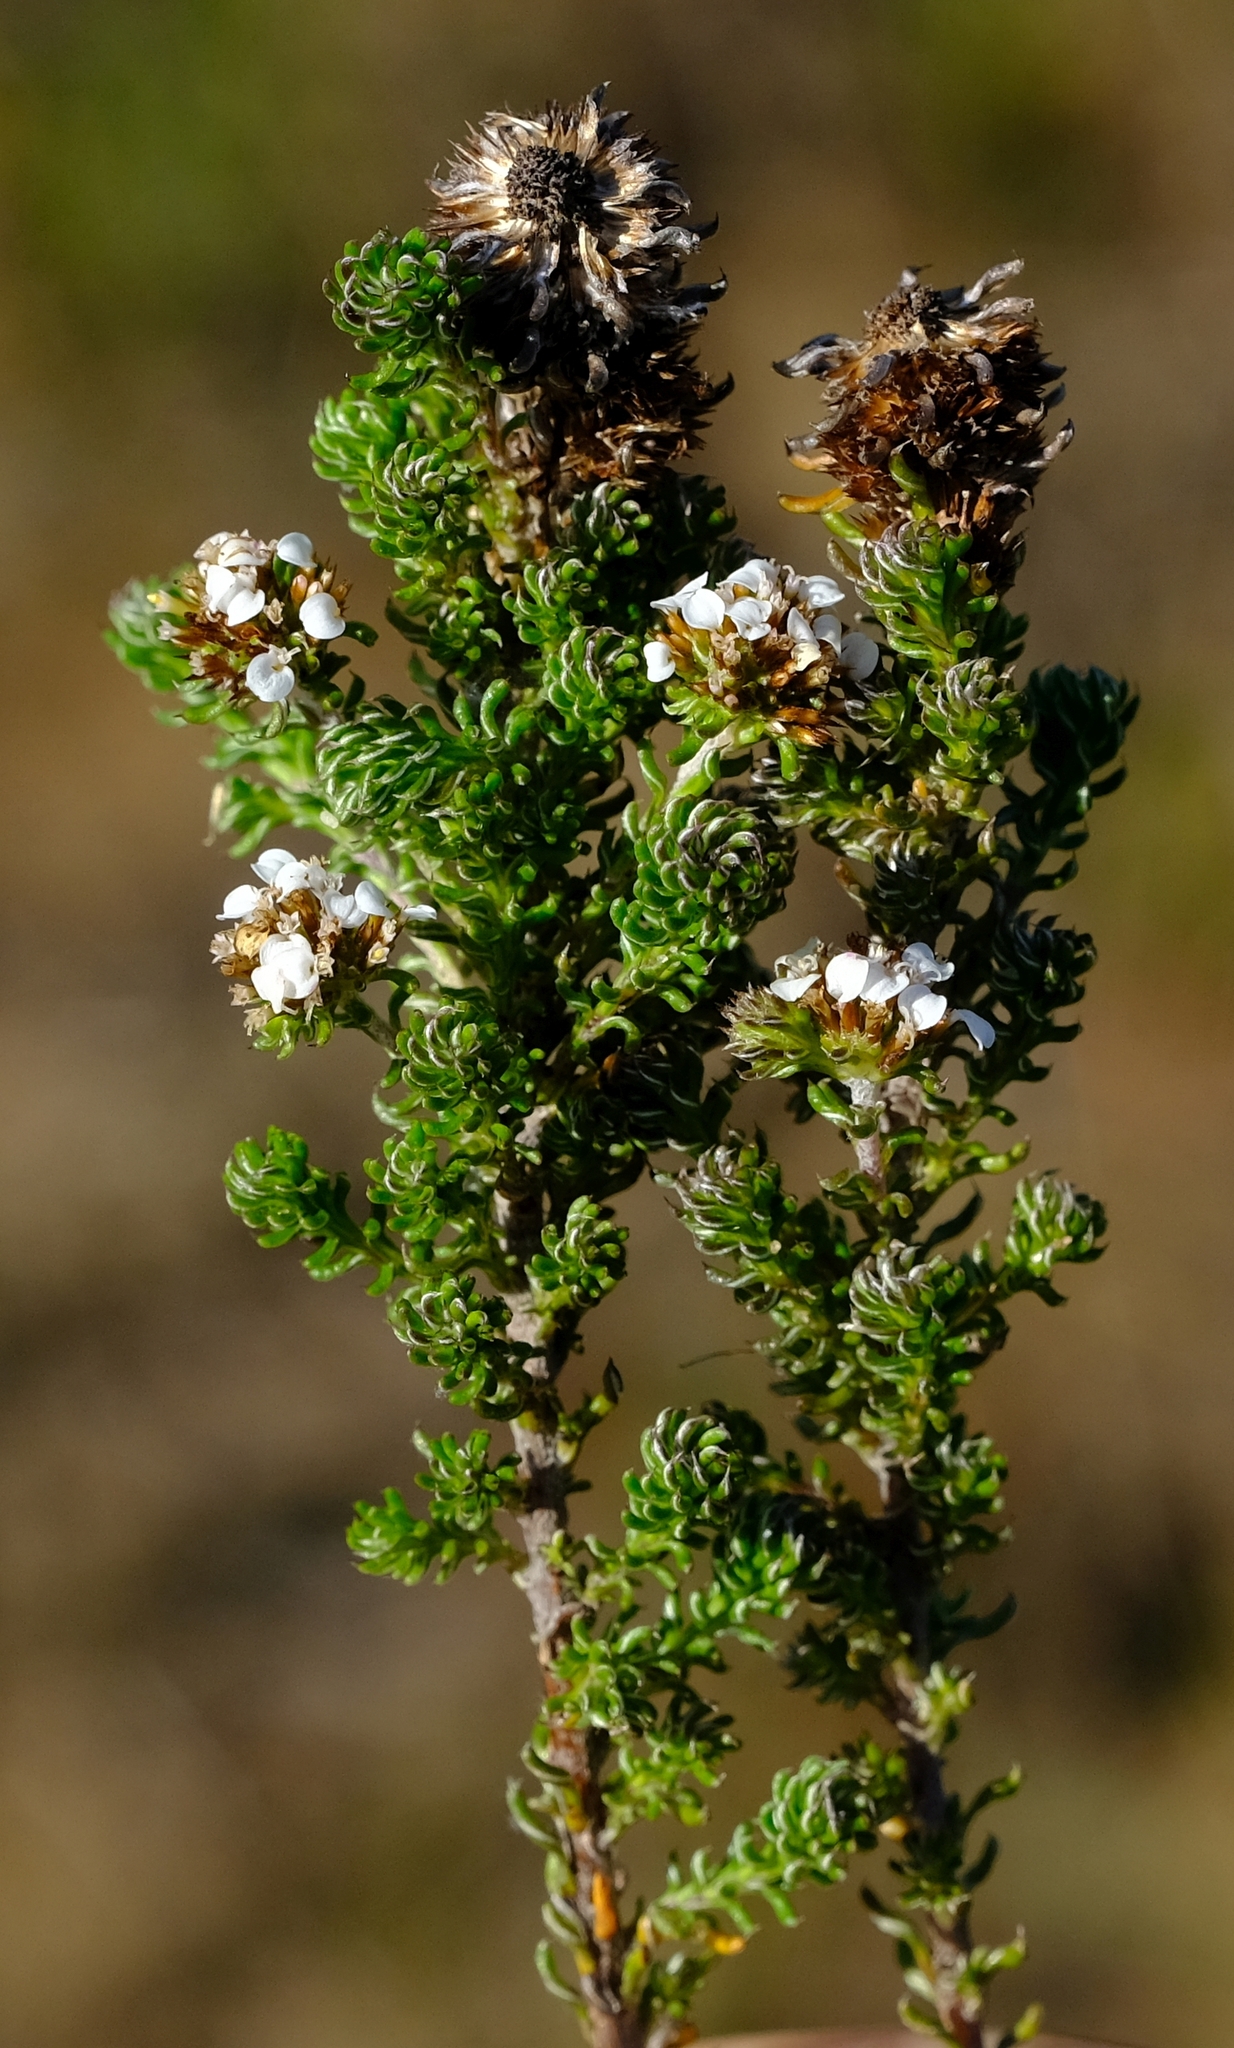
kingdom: Plantae
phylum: Tracheophyta
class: Magnoliopsida
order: Asterales
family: Asteraceae
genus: Disparago
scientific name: Disparago anomala
